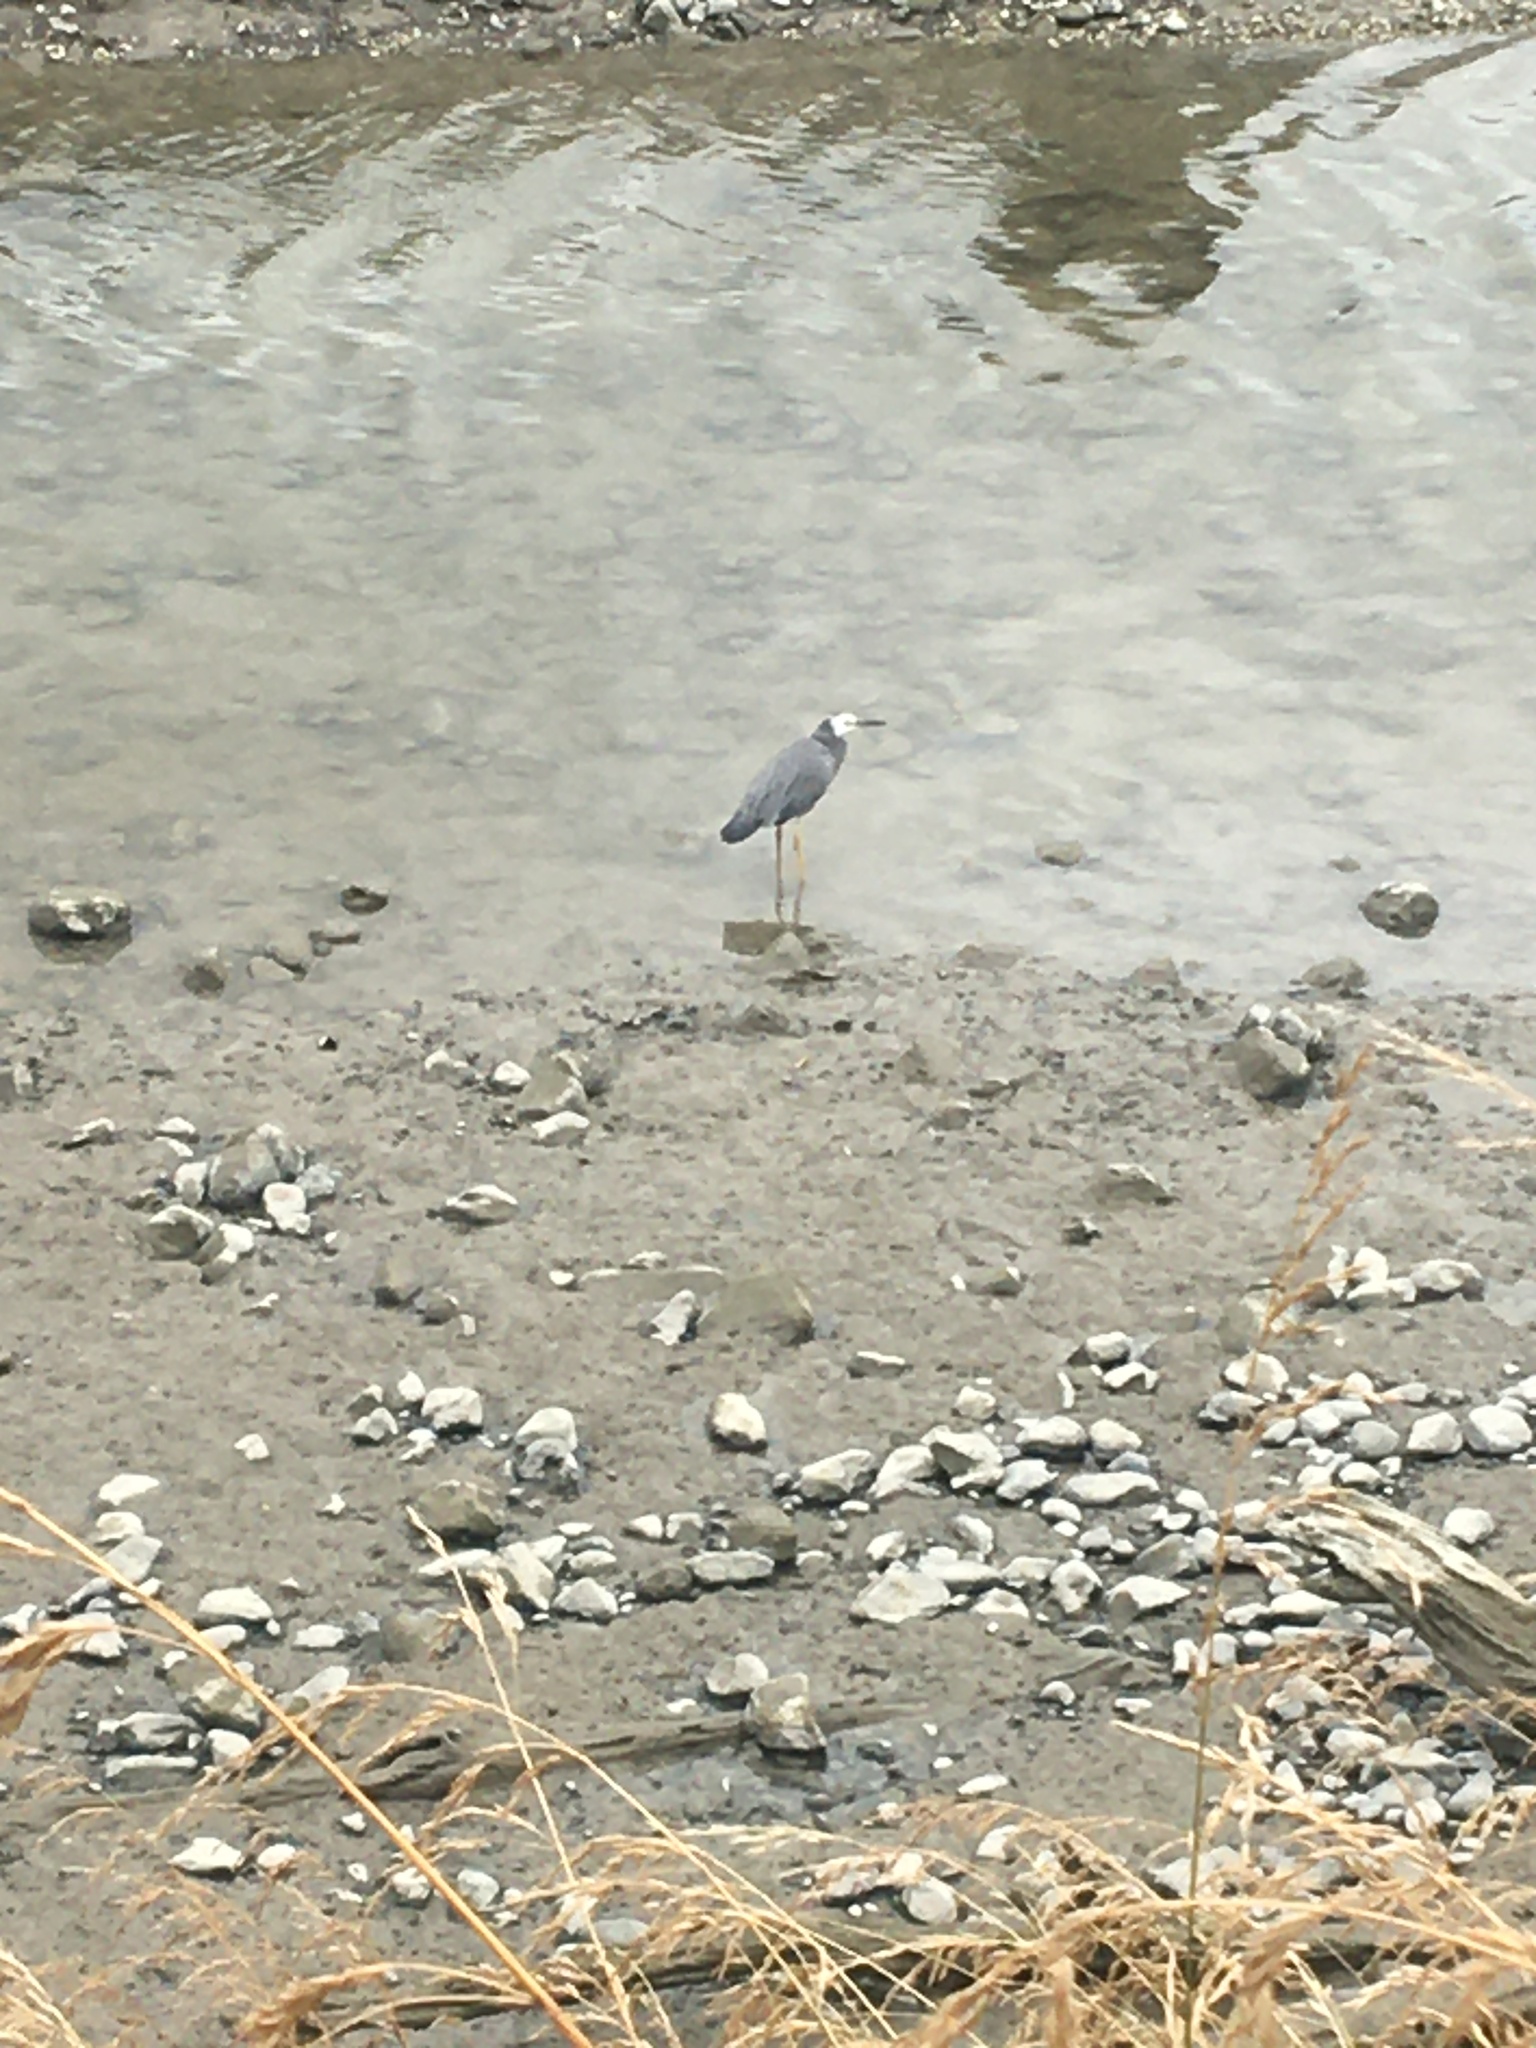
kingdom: Animalia
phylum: Chordata
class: Aves
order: Pelecaniformes
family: Ardeidae
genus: Egretta
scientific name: Egretta novaehollandiae
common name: White-faced heron
